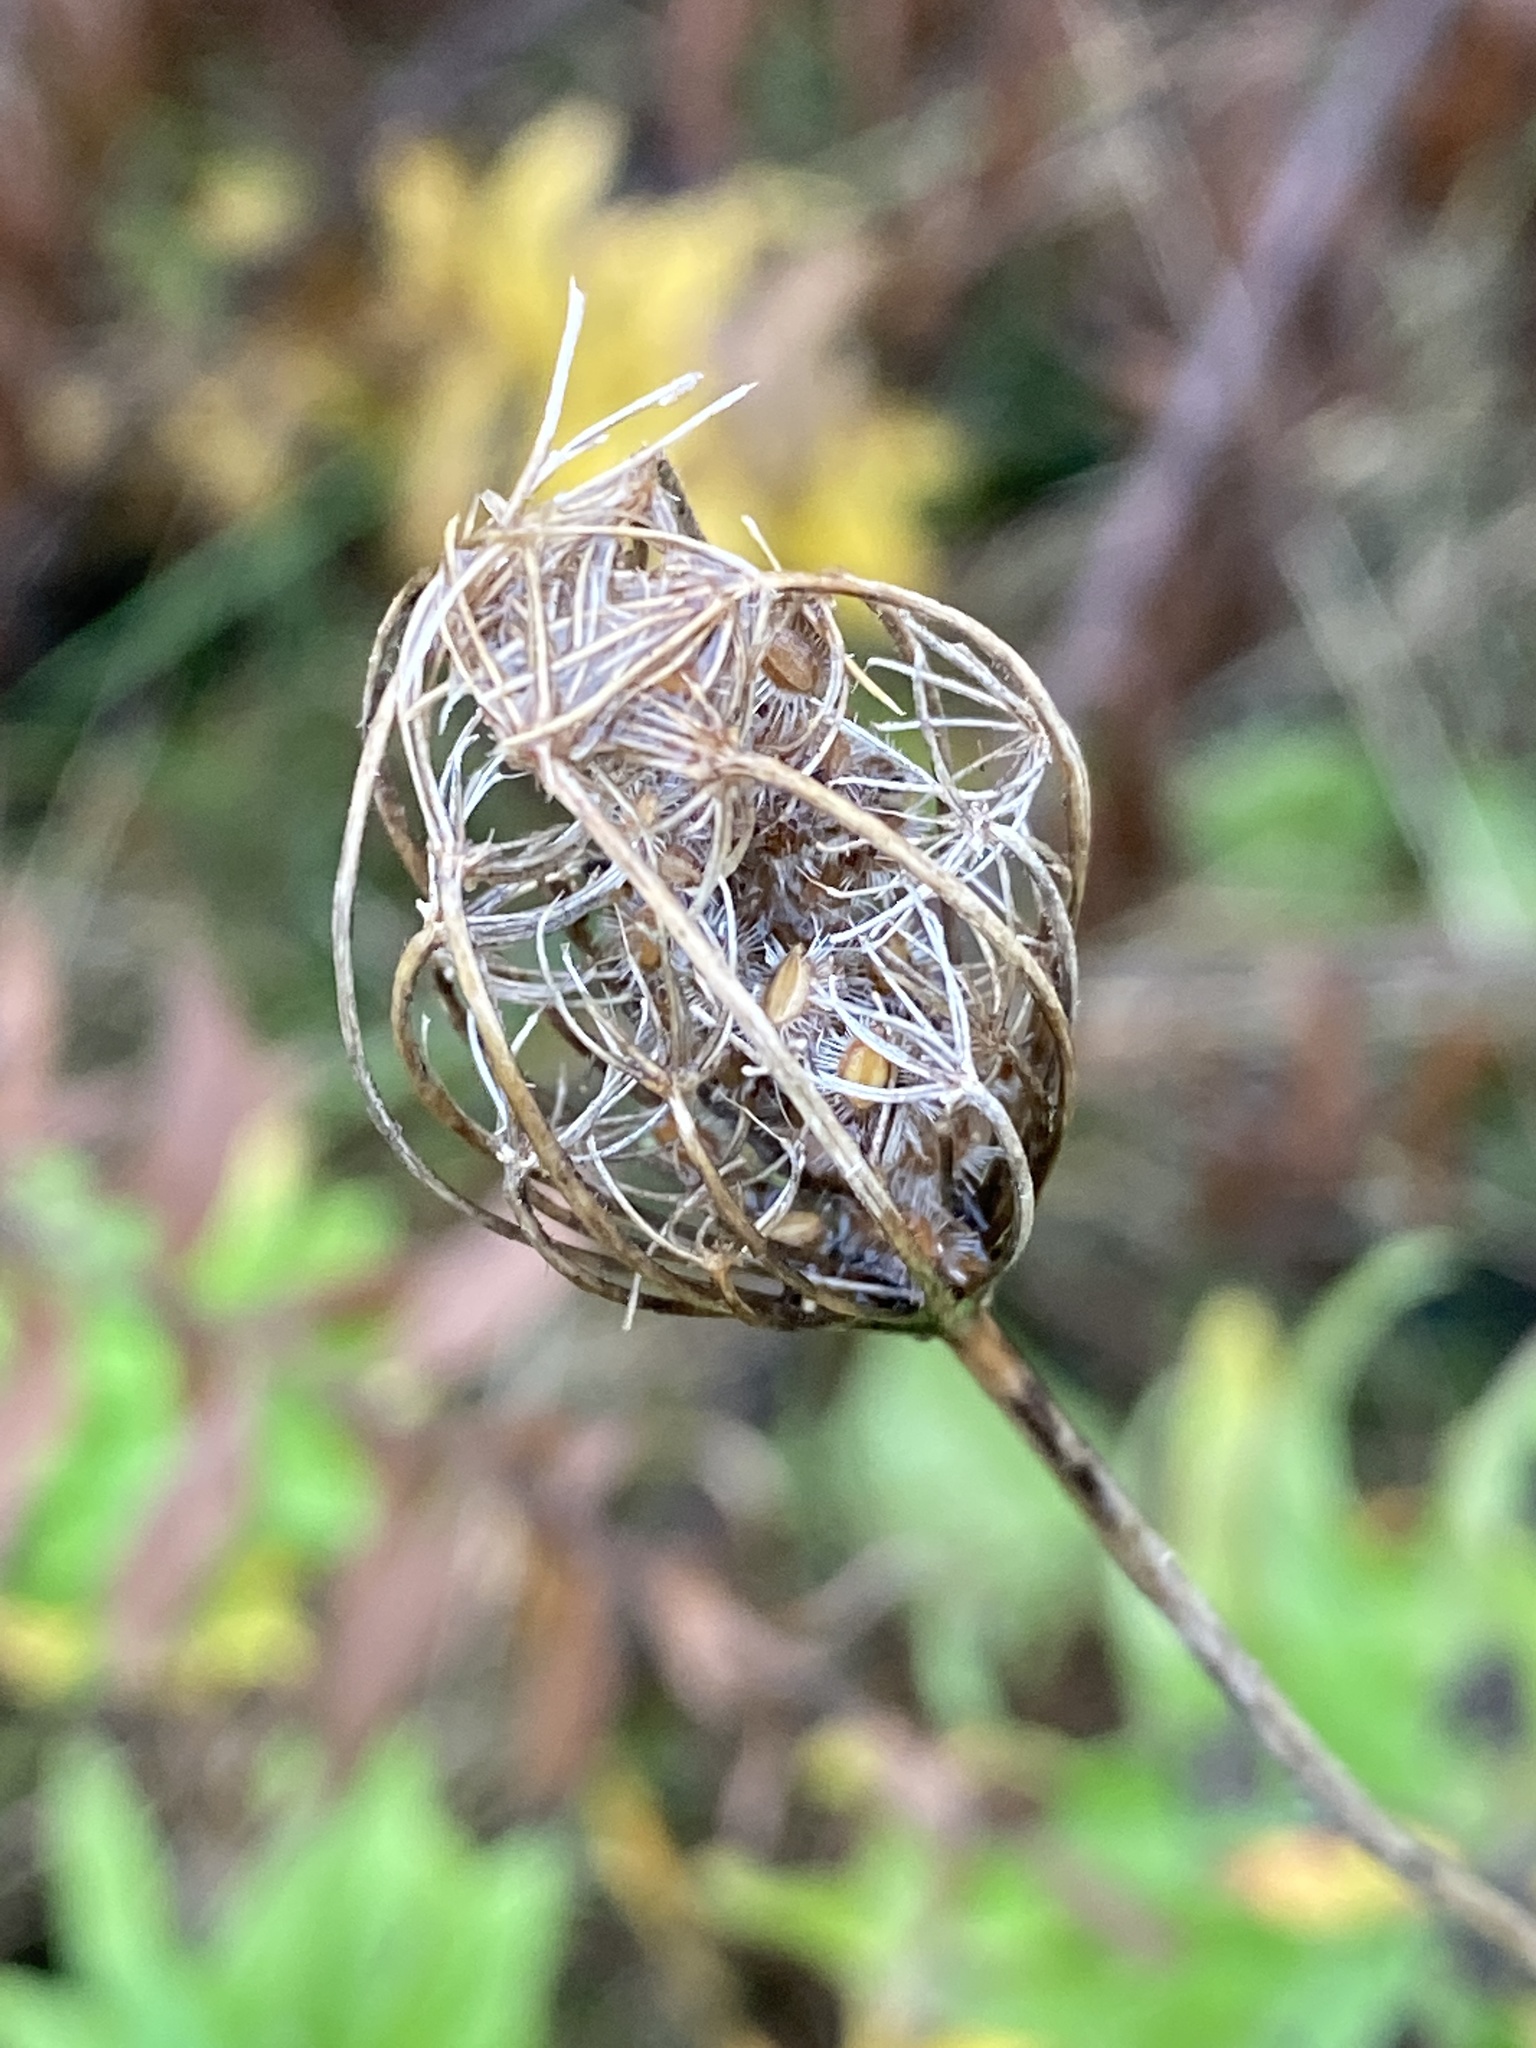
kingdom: Plantae
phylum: Tracheophyta
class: Magnoliopsida
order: Apiales
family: Apiaceae
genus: Daucus
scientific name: Daucus carota
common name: Wild carrot
